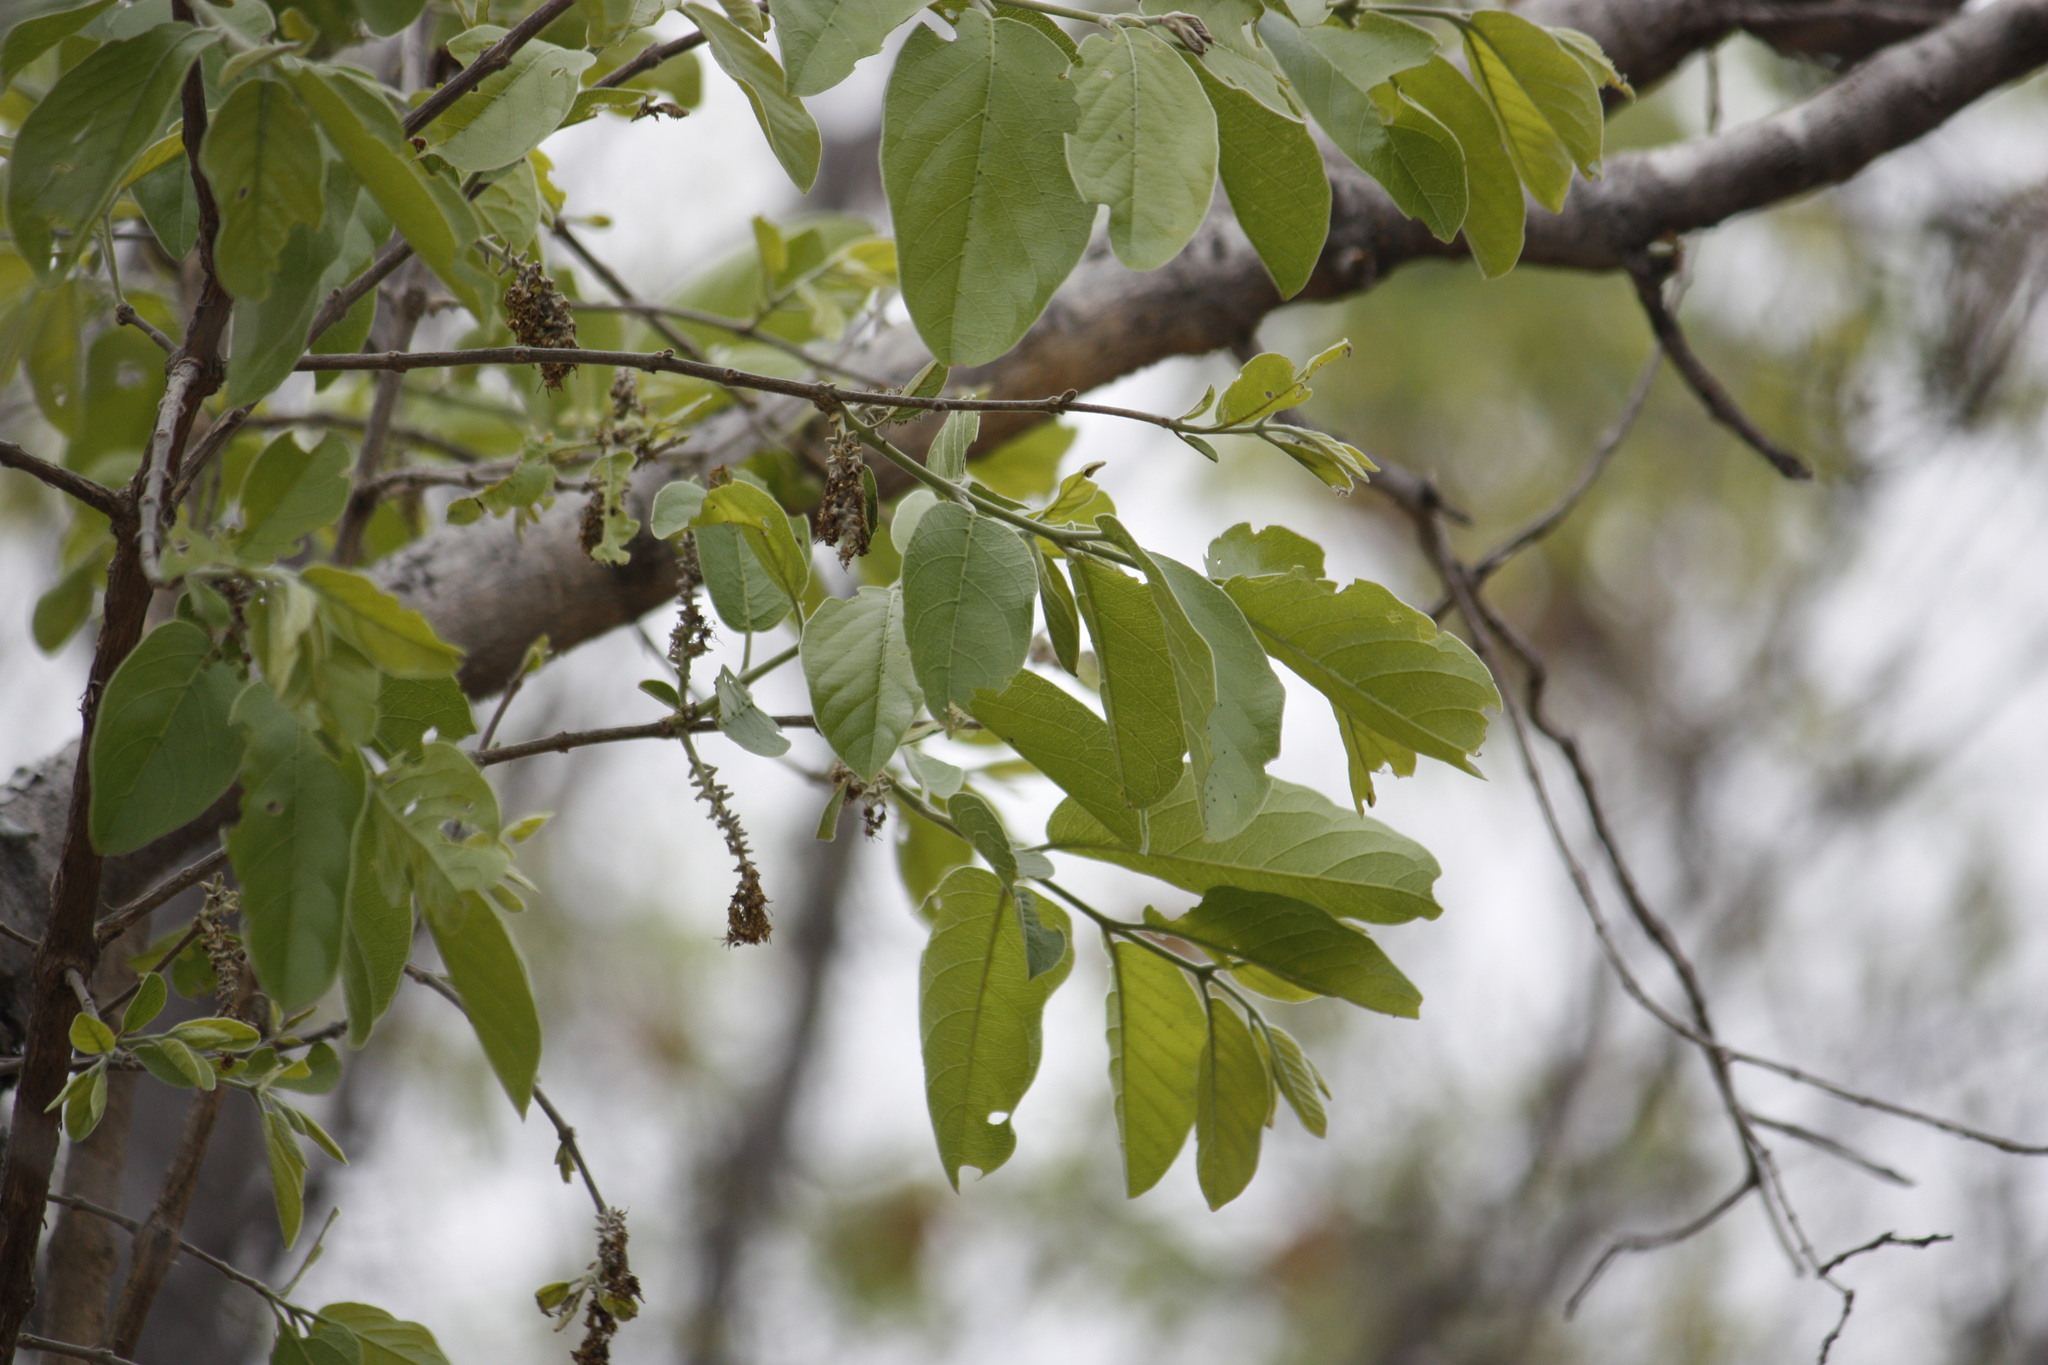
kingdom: Plantae
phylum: Tracheophyta
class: Magnoliopsida
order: Myrtales
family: Combretaceae
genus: Combretum
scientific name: Combretum zeyheri
